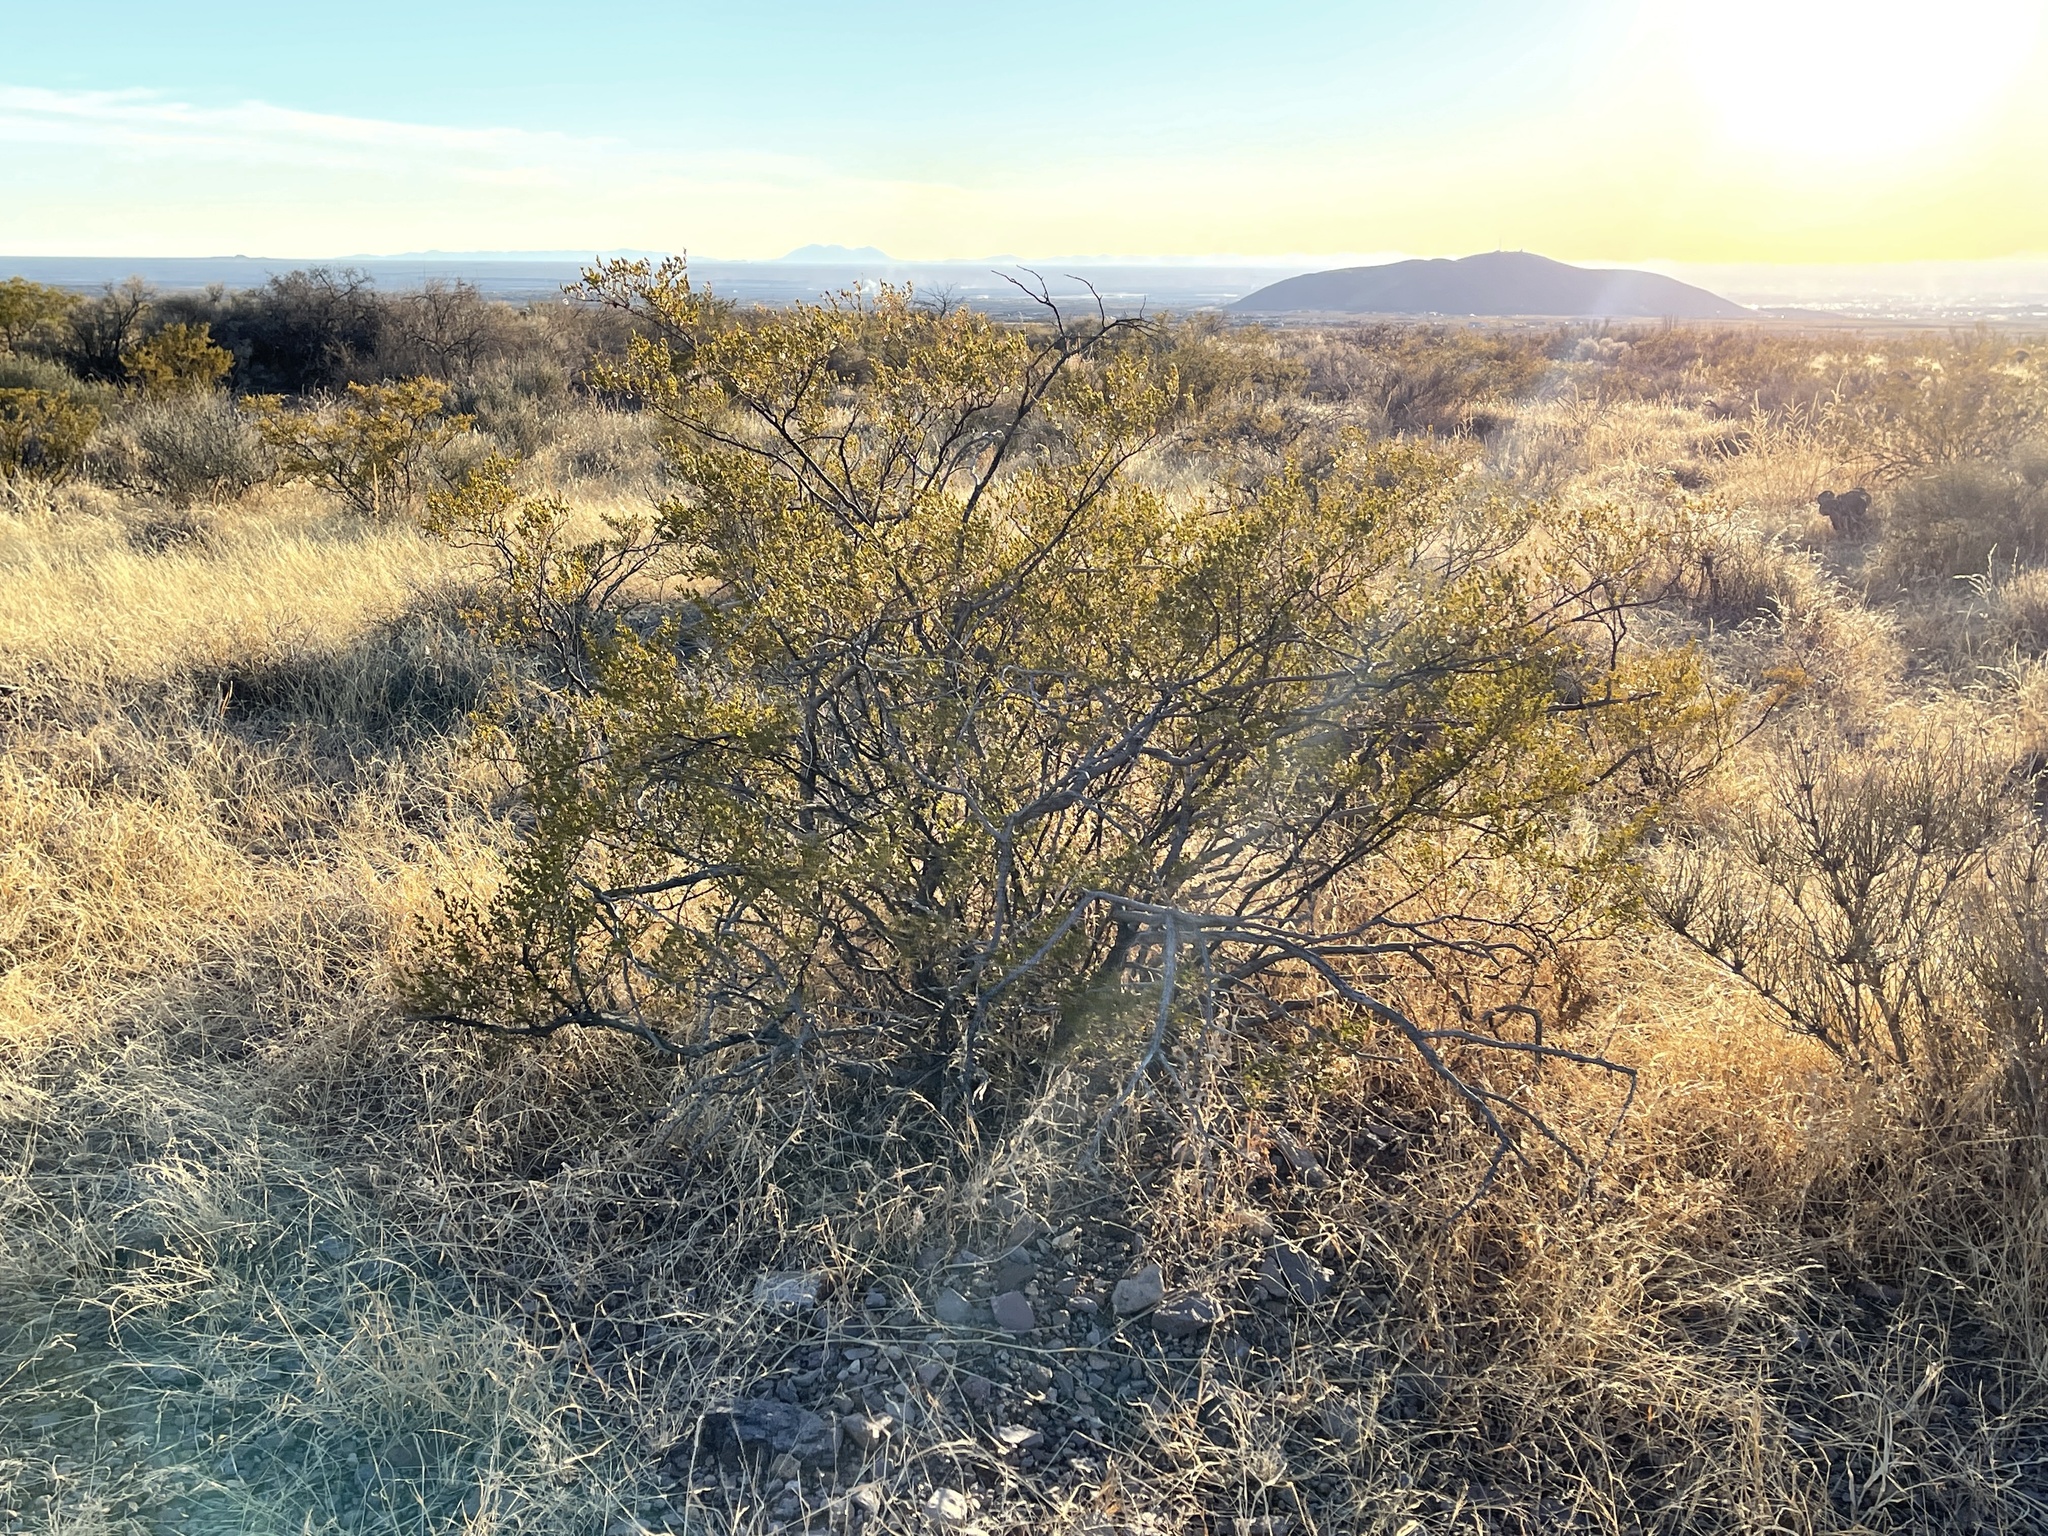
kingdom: Plantae
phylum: Tracheophyta
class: Magnoliopsida
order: Zygophyllales
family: Zygophyllaceae
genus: Larrea
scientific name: Larrea tridentata
